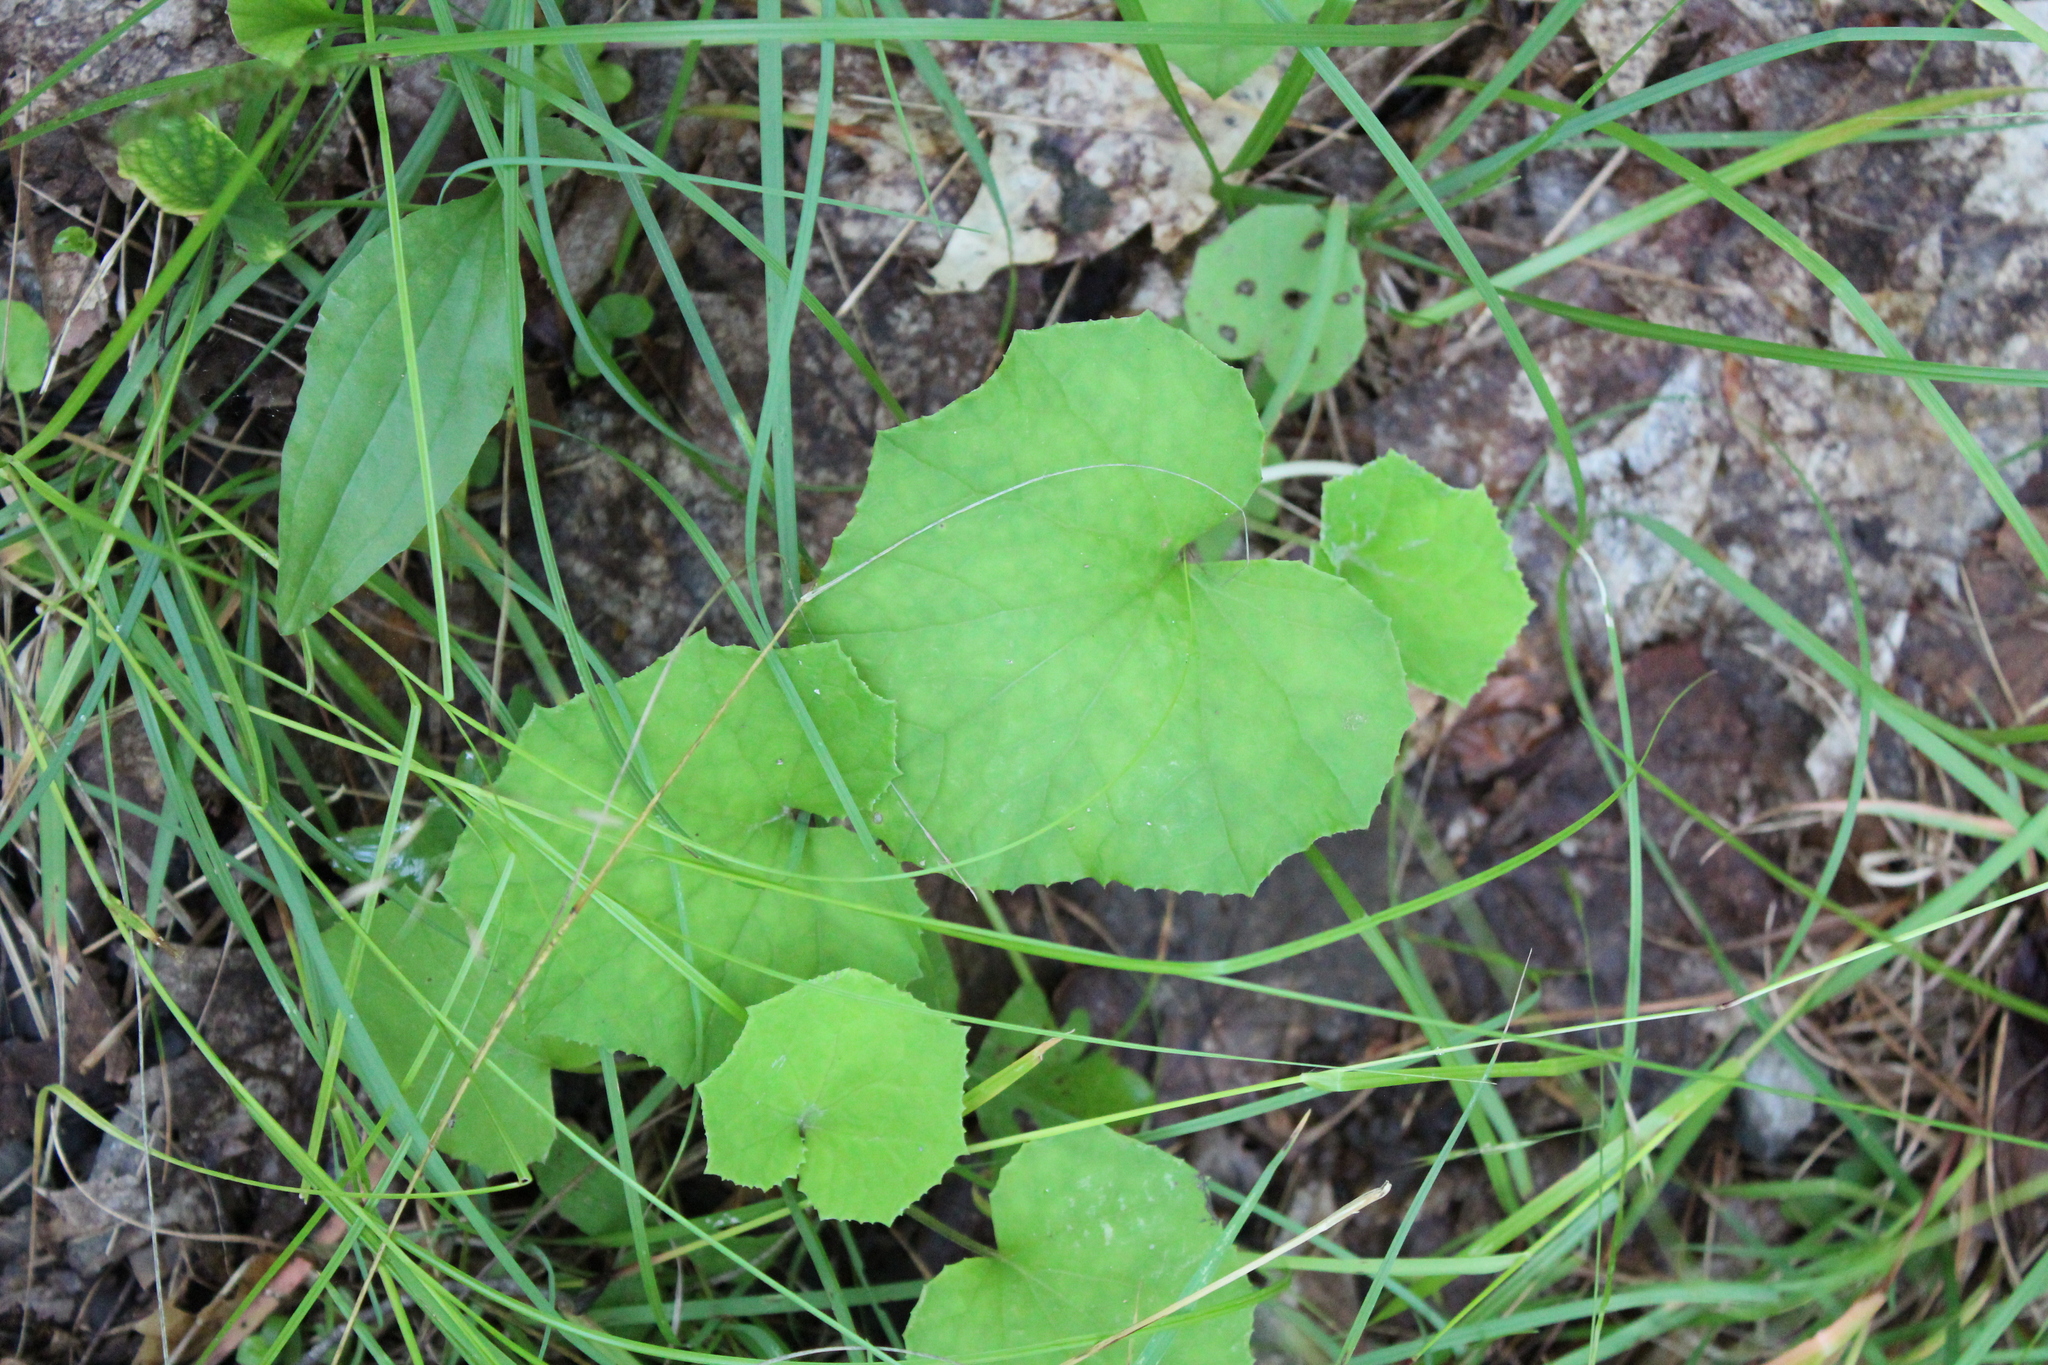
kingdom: Plantae
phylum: Tracheophyta
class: Magnoliopsida
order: Asterales
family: Asteraceae
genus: Tussilago
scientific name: Tussilago farfara
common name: Coltsfoot
